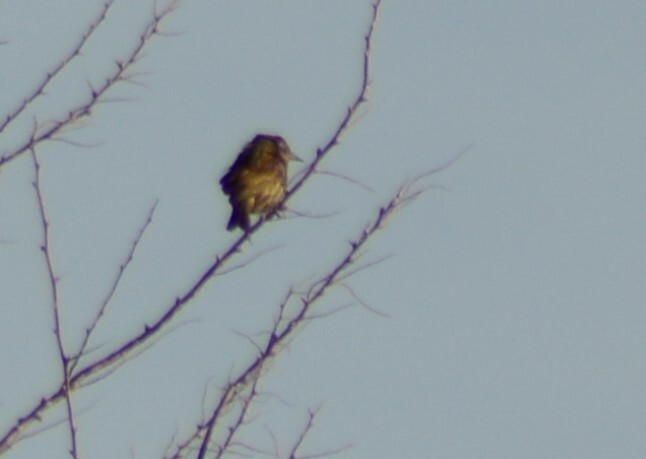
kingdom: Animalia
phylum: Chordata
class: Aves
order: Passeriformes
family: Icteridae
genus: Agelasticus
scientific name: Agelasticus thilius
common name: Yellow-winged blackbird
